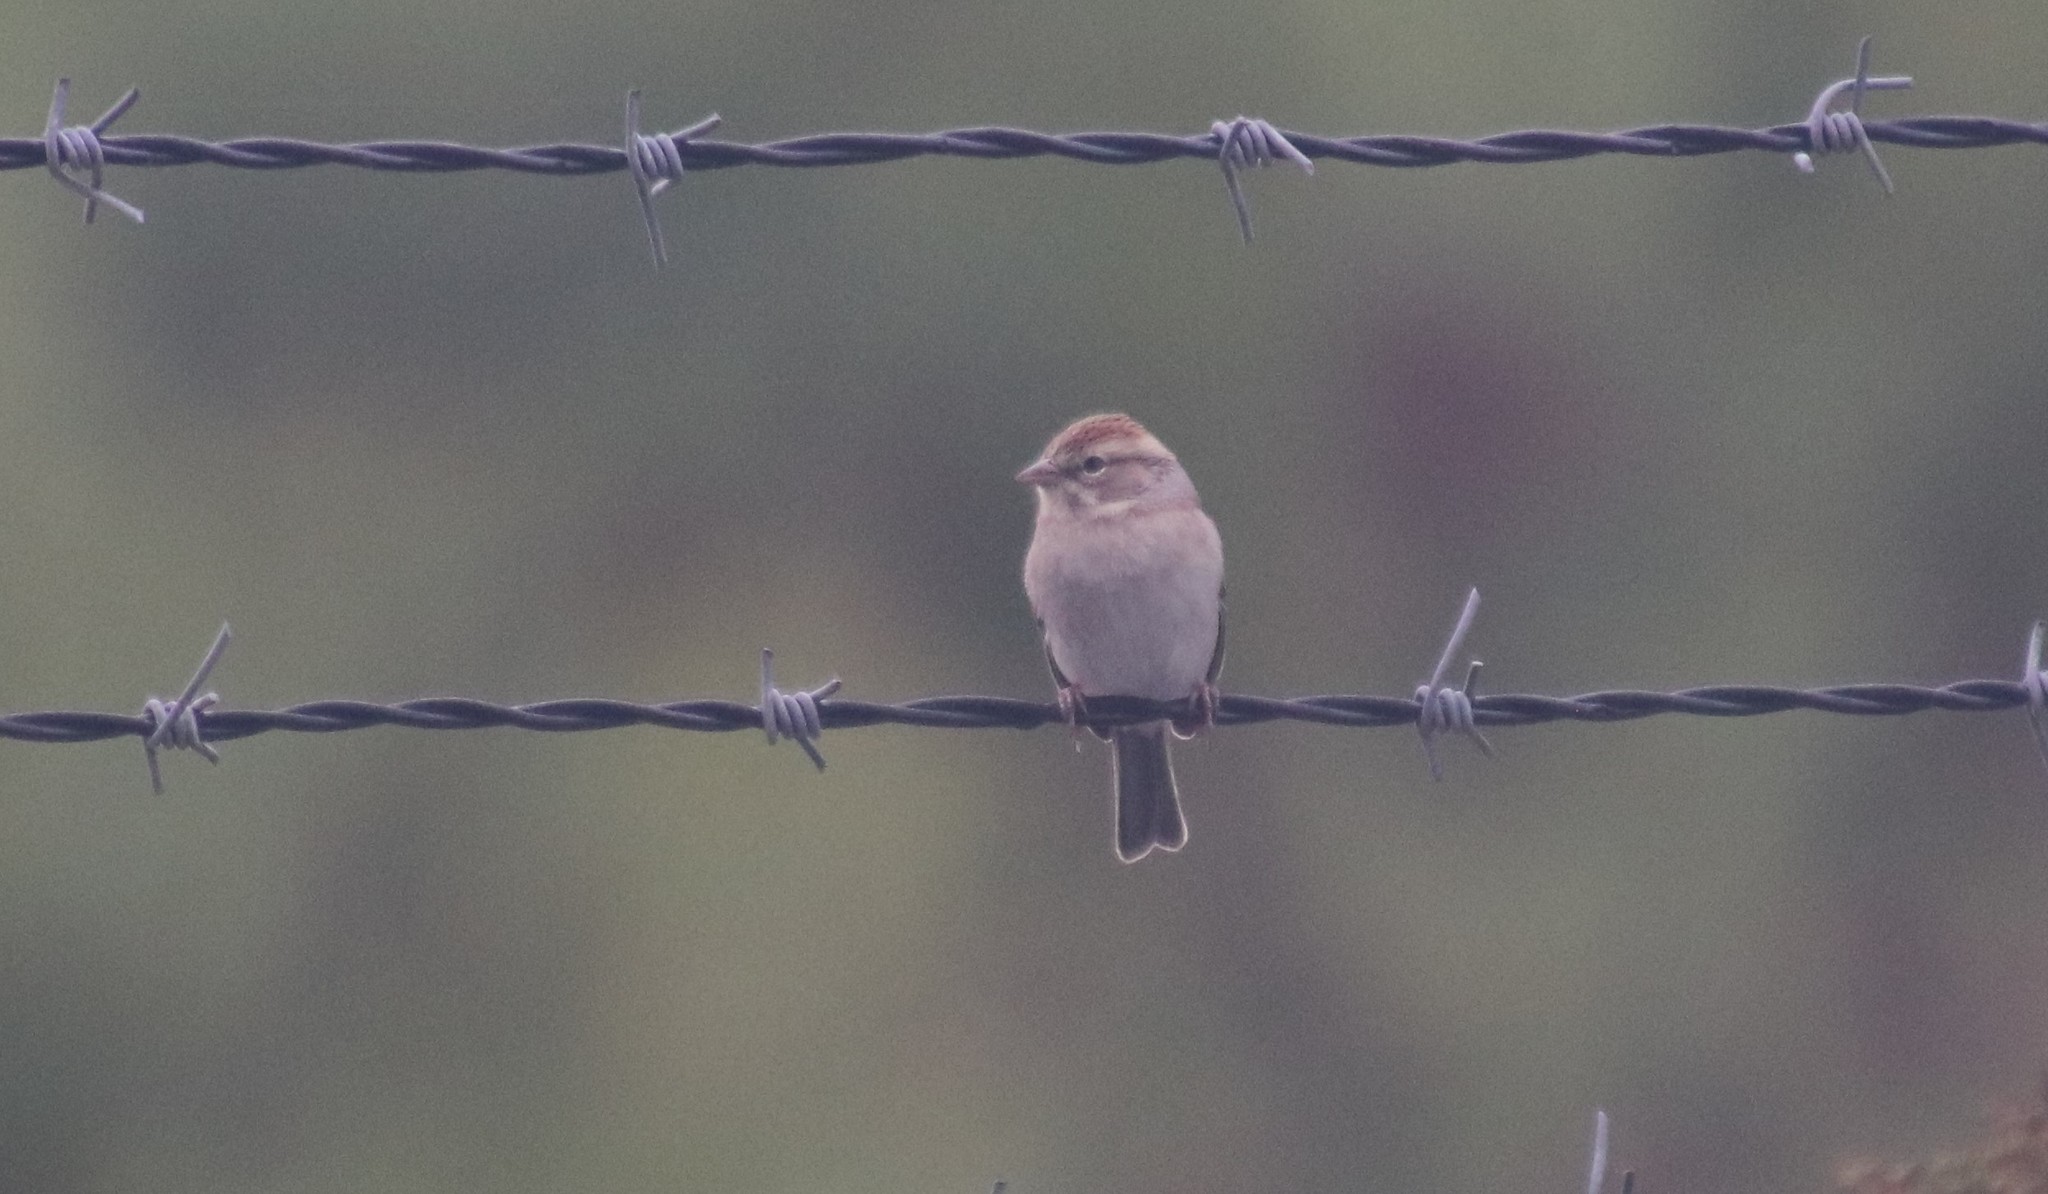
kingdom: Animalia
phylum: Chordata
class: Aves
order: Passeriformes
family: Passerellidae
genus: Spizella
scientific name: Spizella passerina
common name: Chipping sparrow
